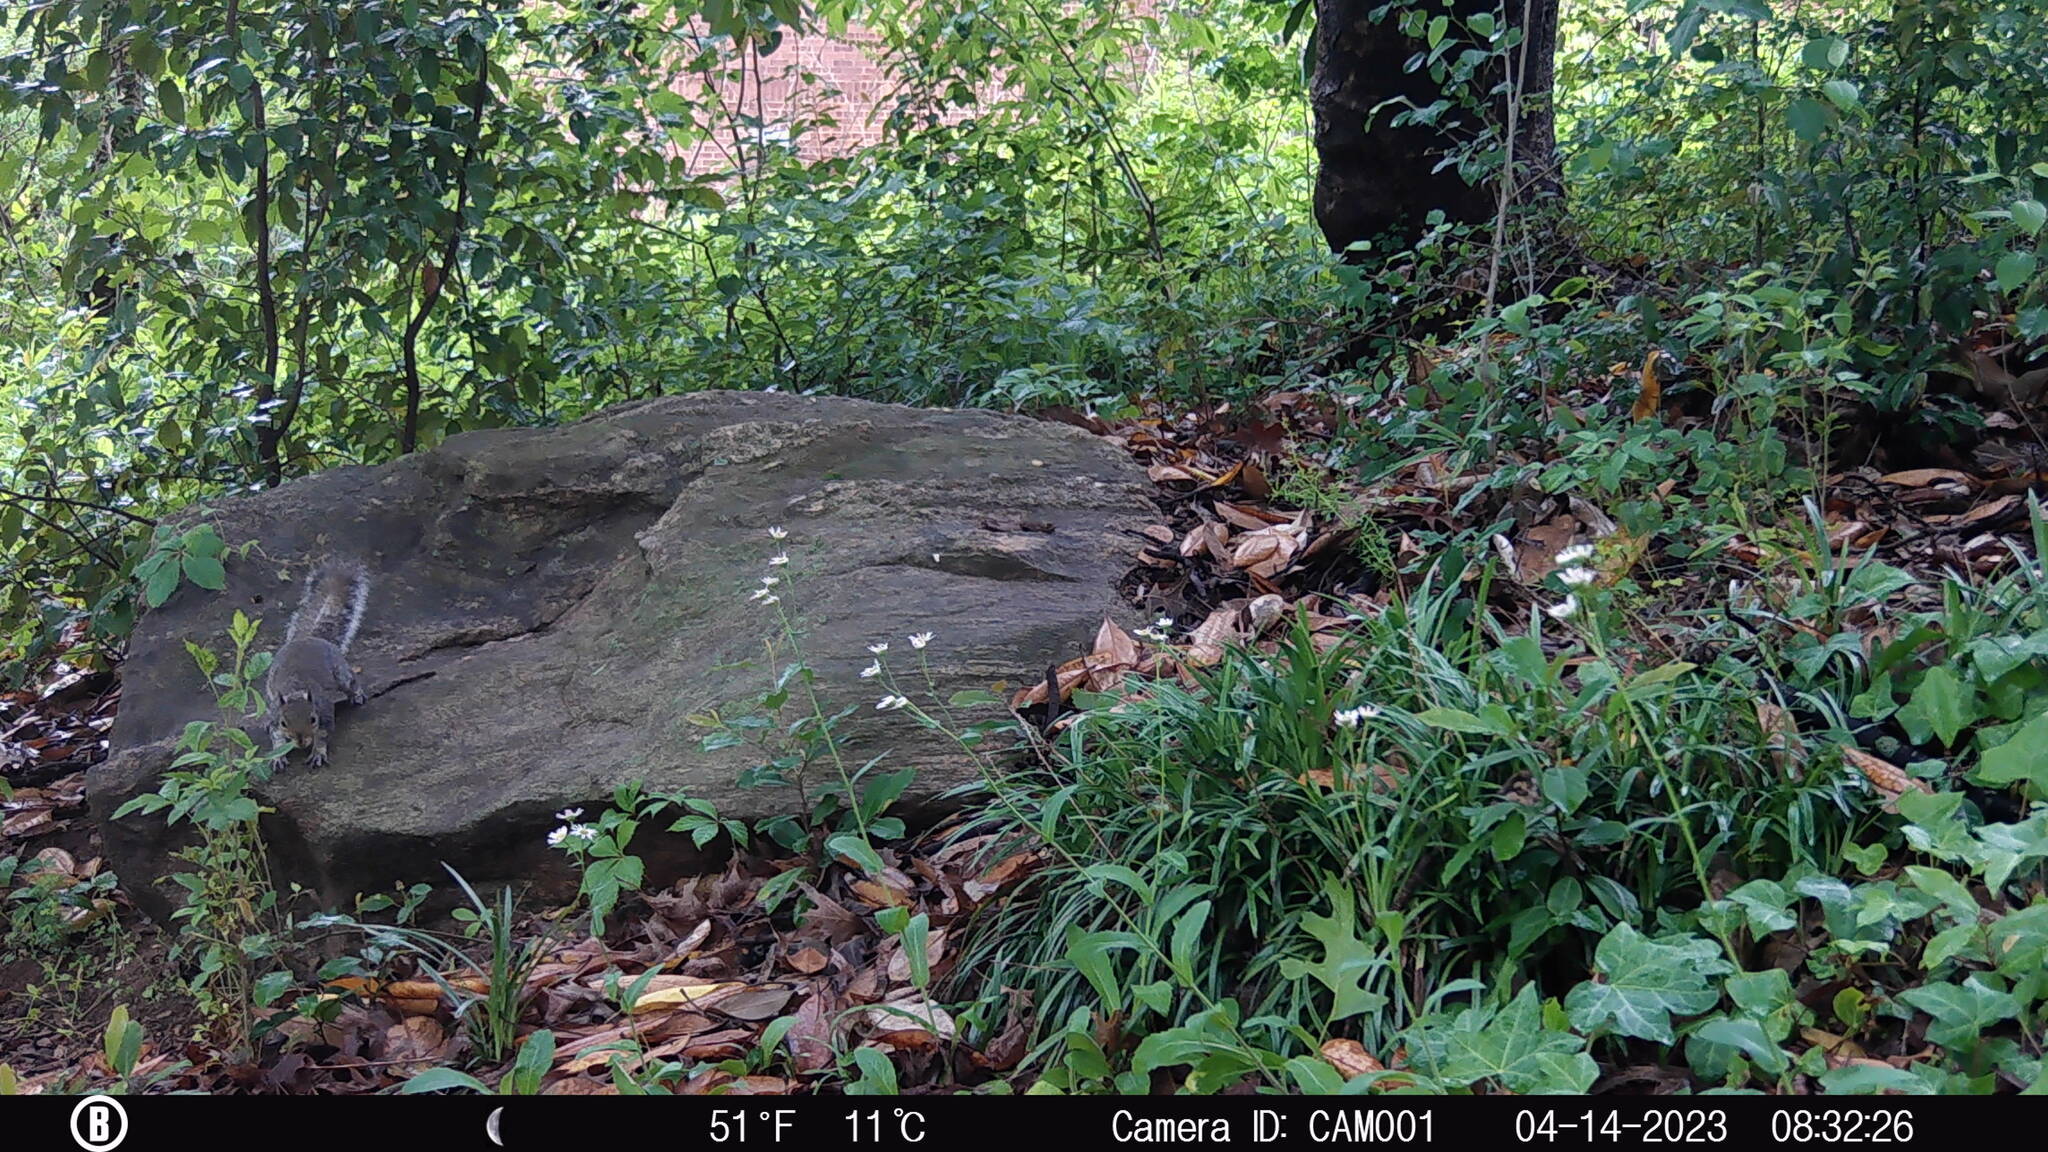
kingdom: Animalia
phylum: Chordata
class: Mammalia
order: Rodentia
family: Sciuridae
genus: Sciurus
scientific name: Sciurus carolinensis
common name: Eastern gray squirrel
